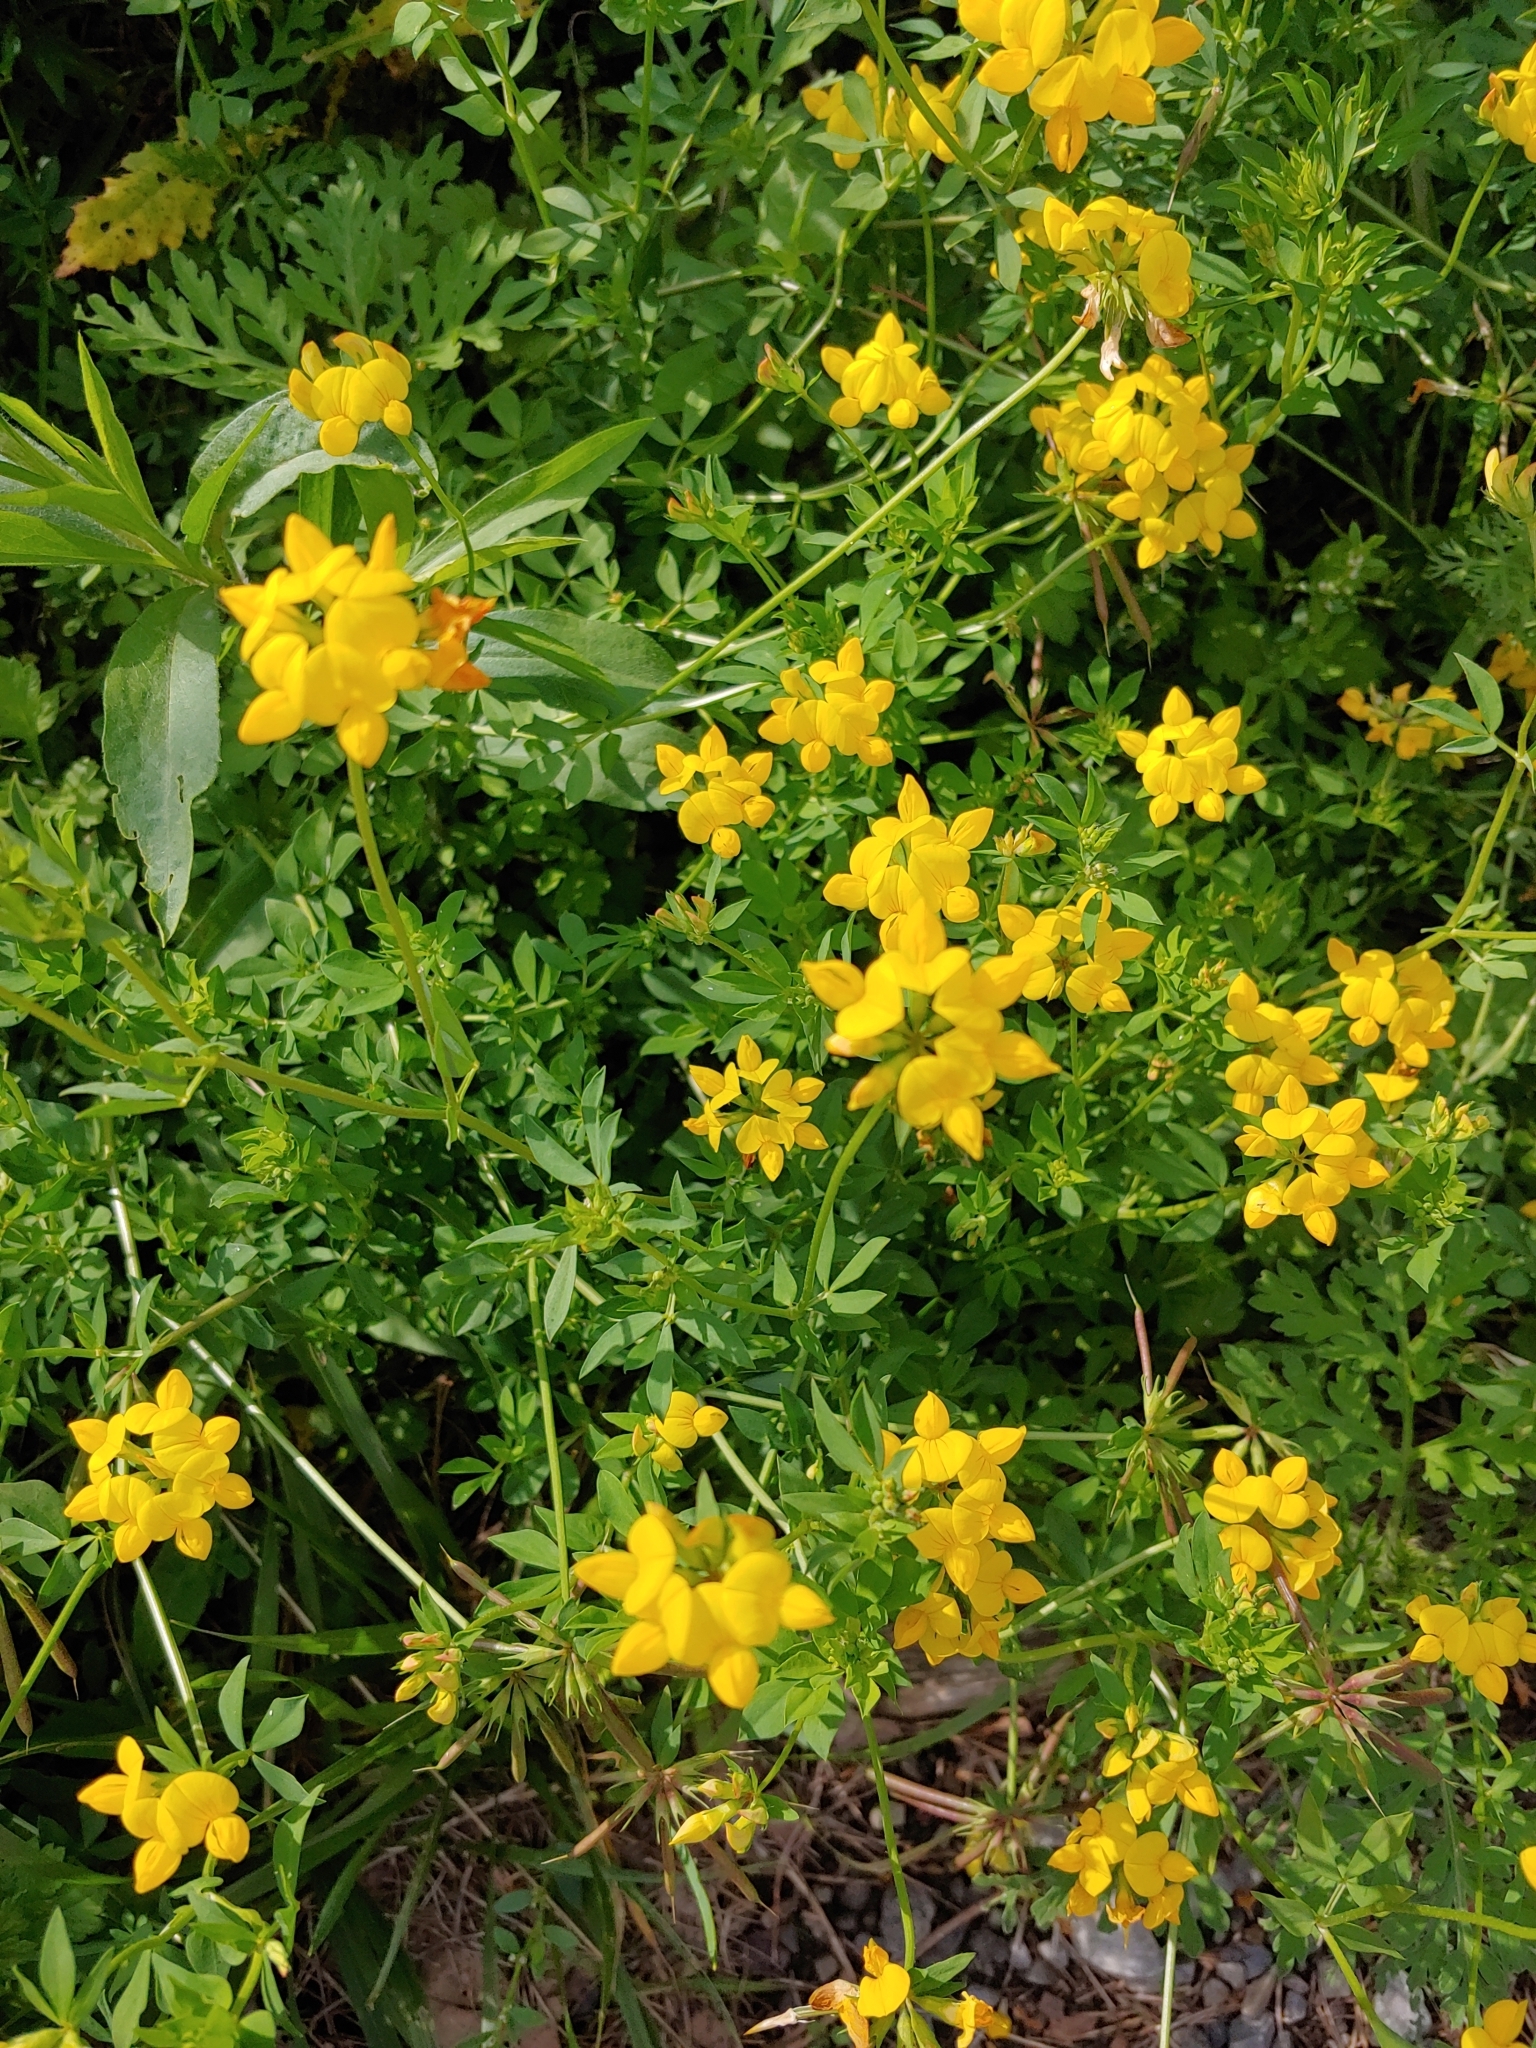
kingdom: Plantae
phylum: Tracheophyta
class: Magnoliopsida
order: Fabales
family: Fabaceae
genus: Lotus
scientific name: Lotus corniculatus
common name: Common bird's-foot-trefoil
